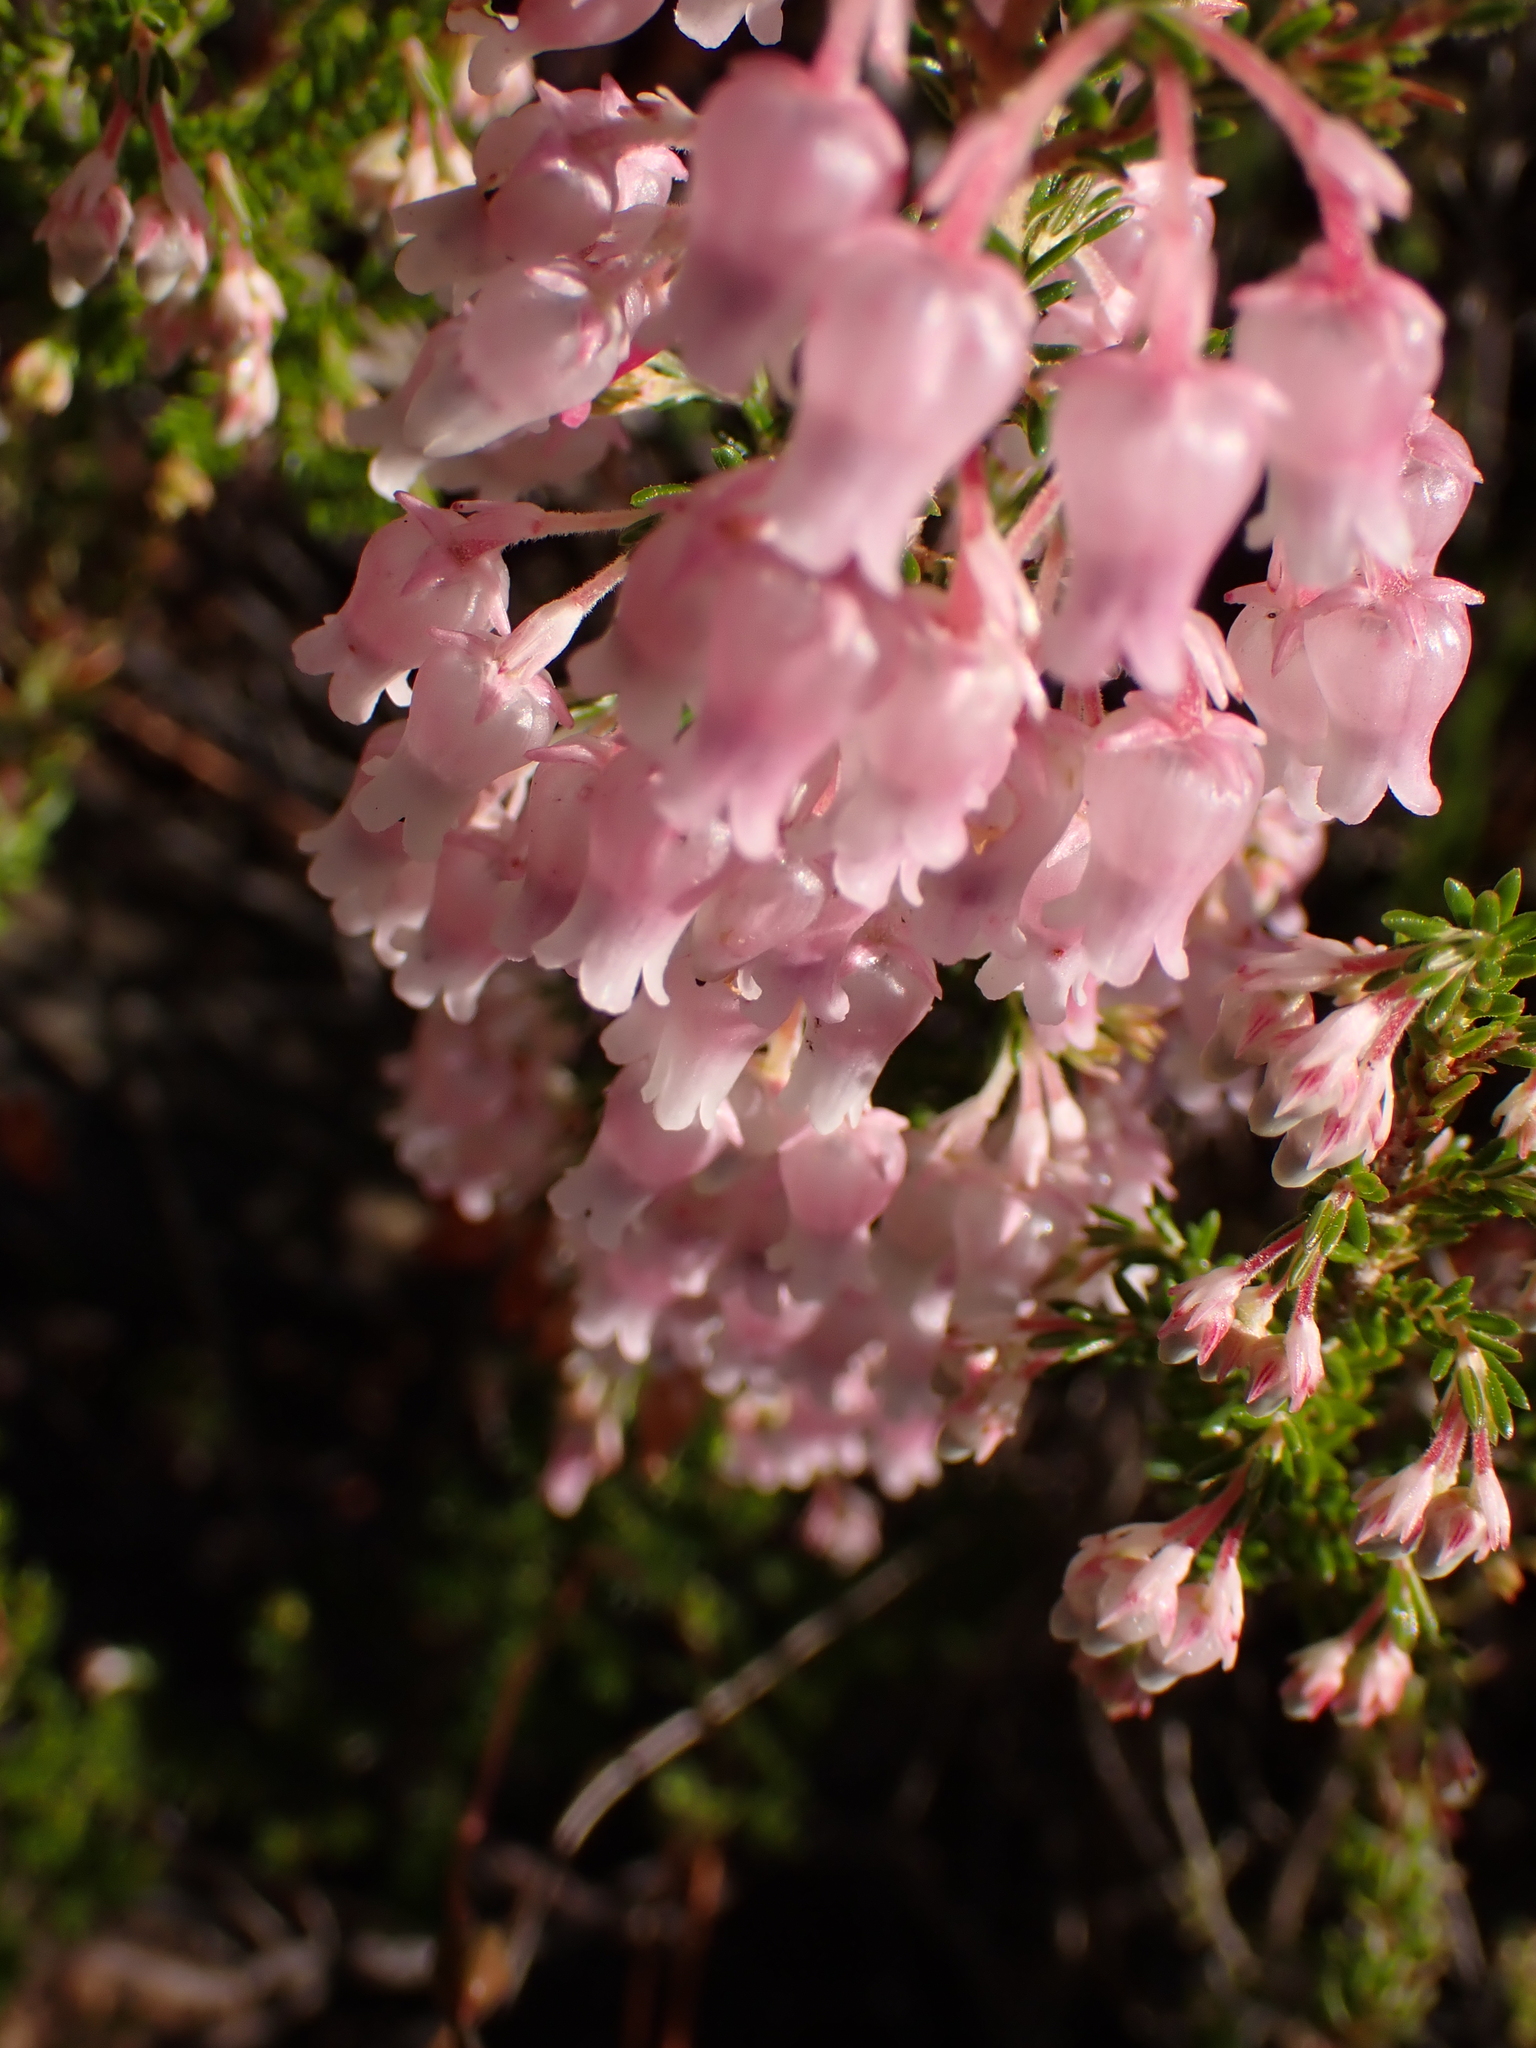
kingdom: Plantae
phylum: Tracheophyta
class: Magnoliopsida
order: Ericales
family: Ericaceae
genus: Erica
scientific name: Erica glomiflora
